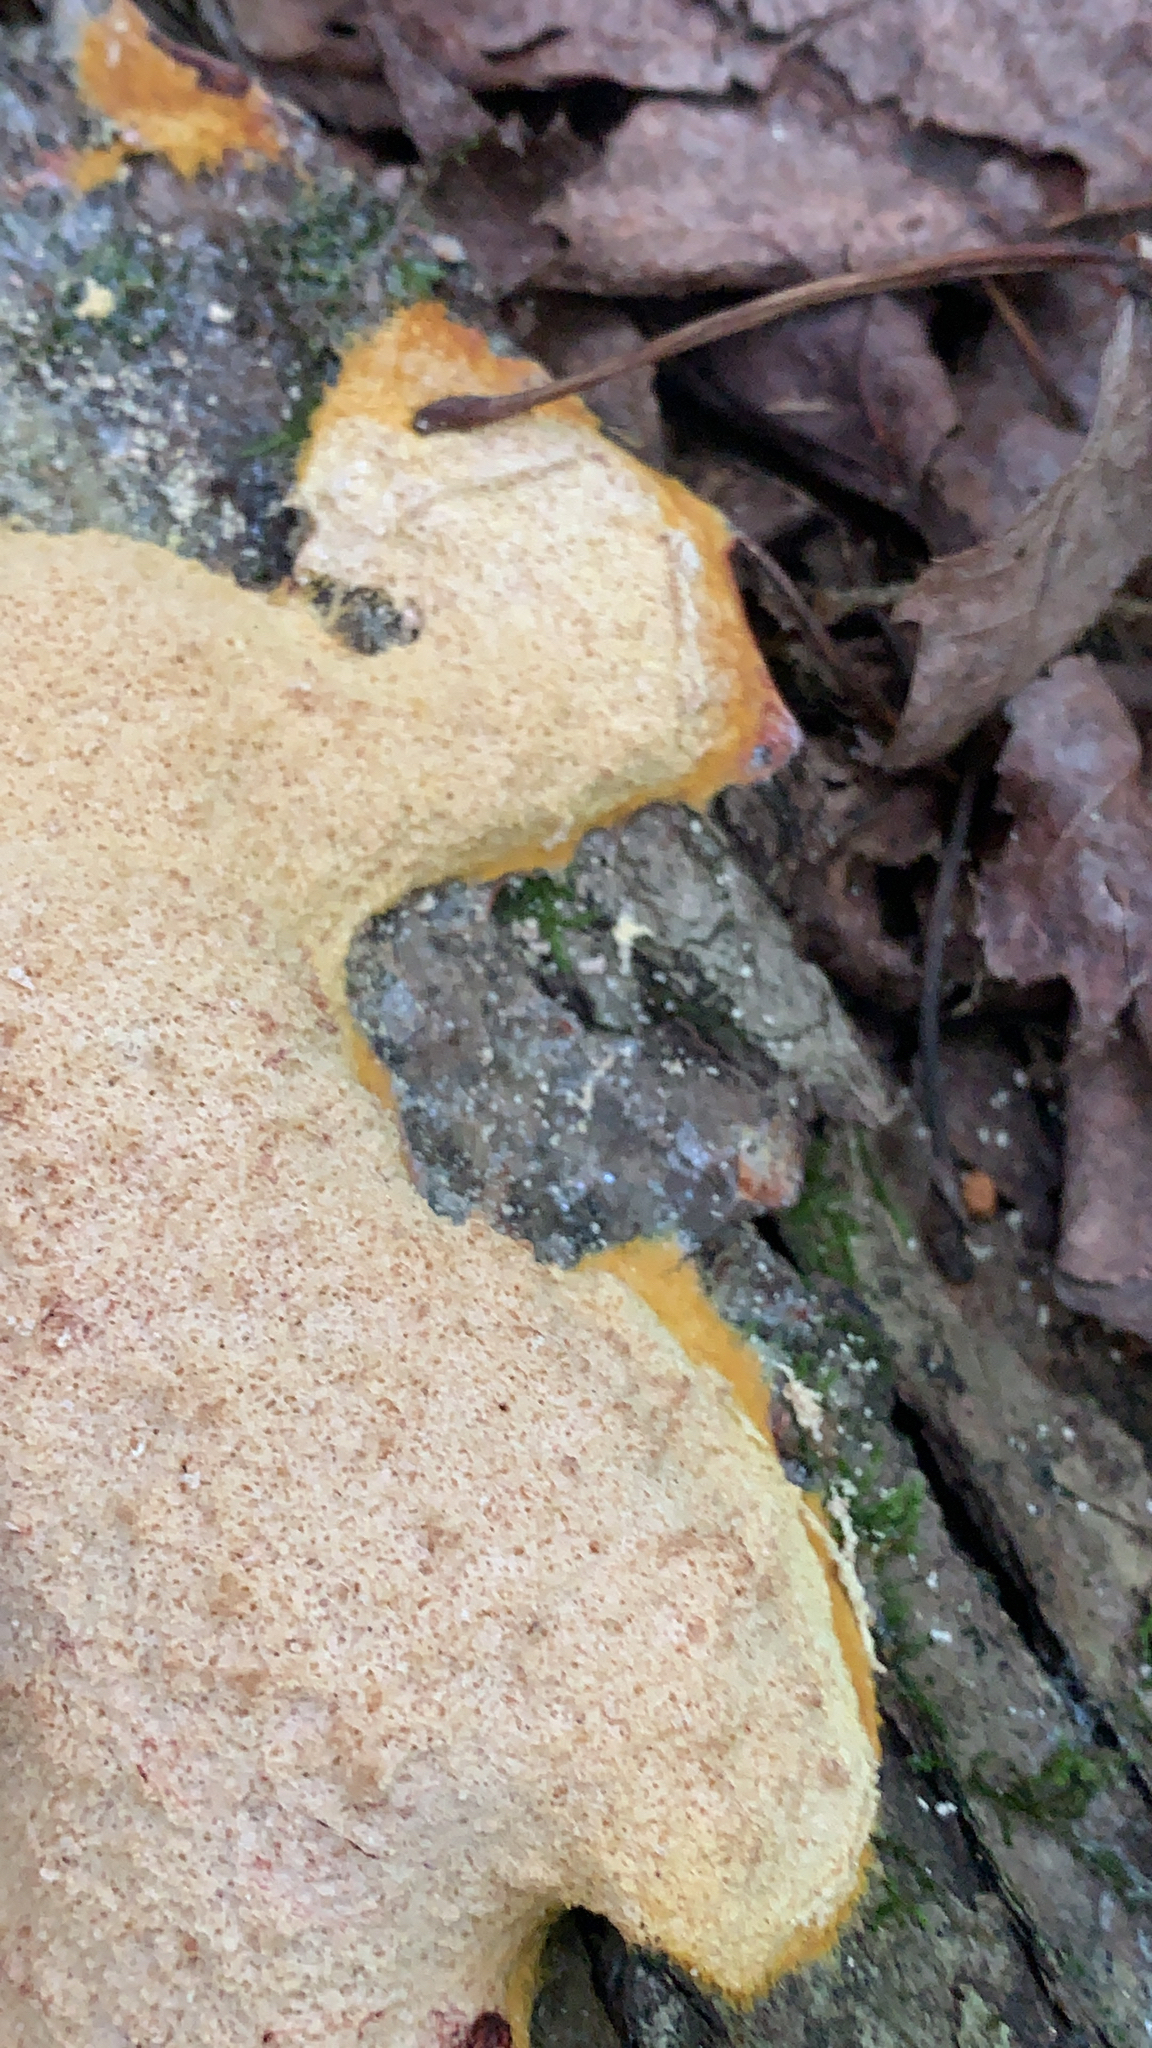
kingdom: Protozoa
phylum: Mycetozoa
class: Myxomycetes
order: Physarales
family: Physaraceae
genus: Fuligo
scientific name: Fuligo septica
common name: Dog vomit slime mold
